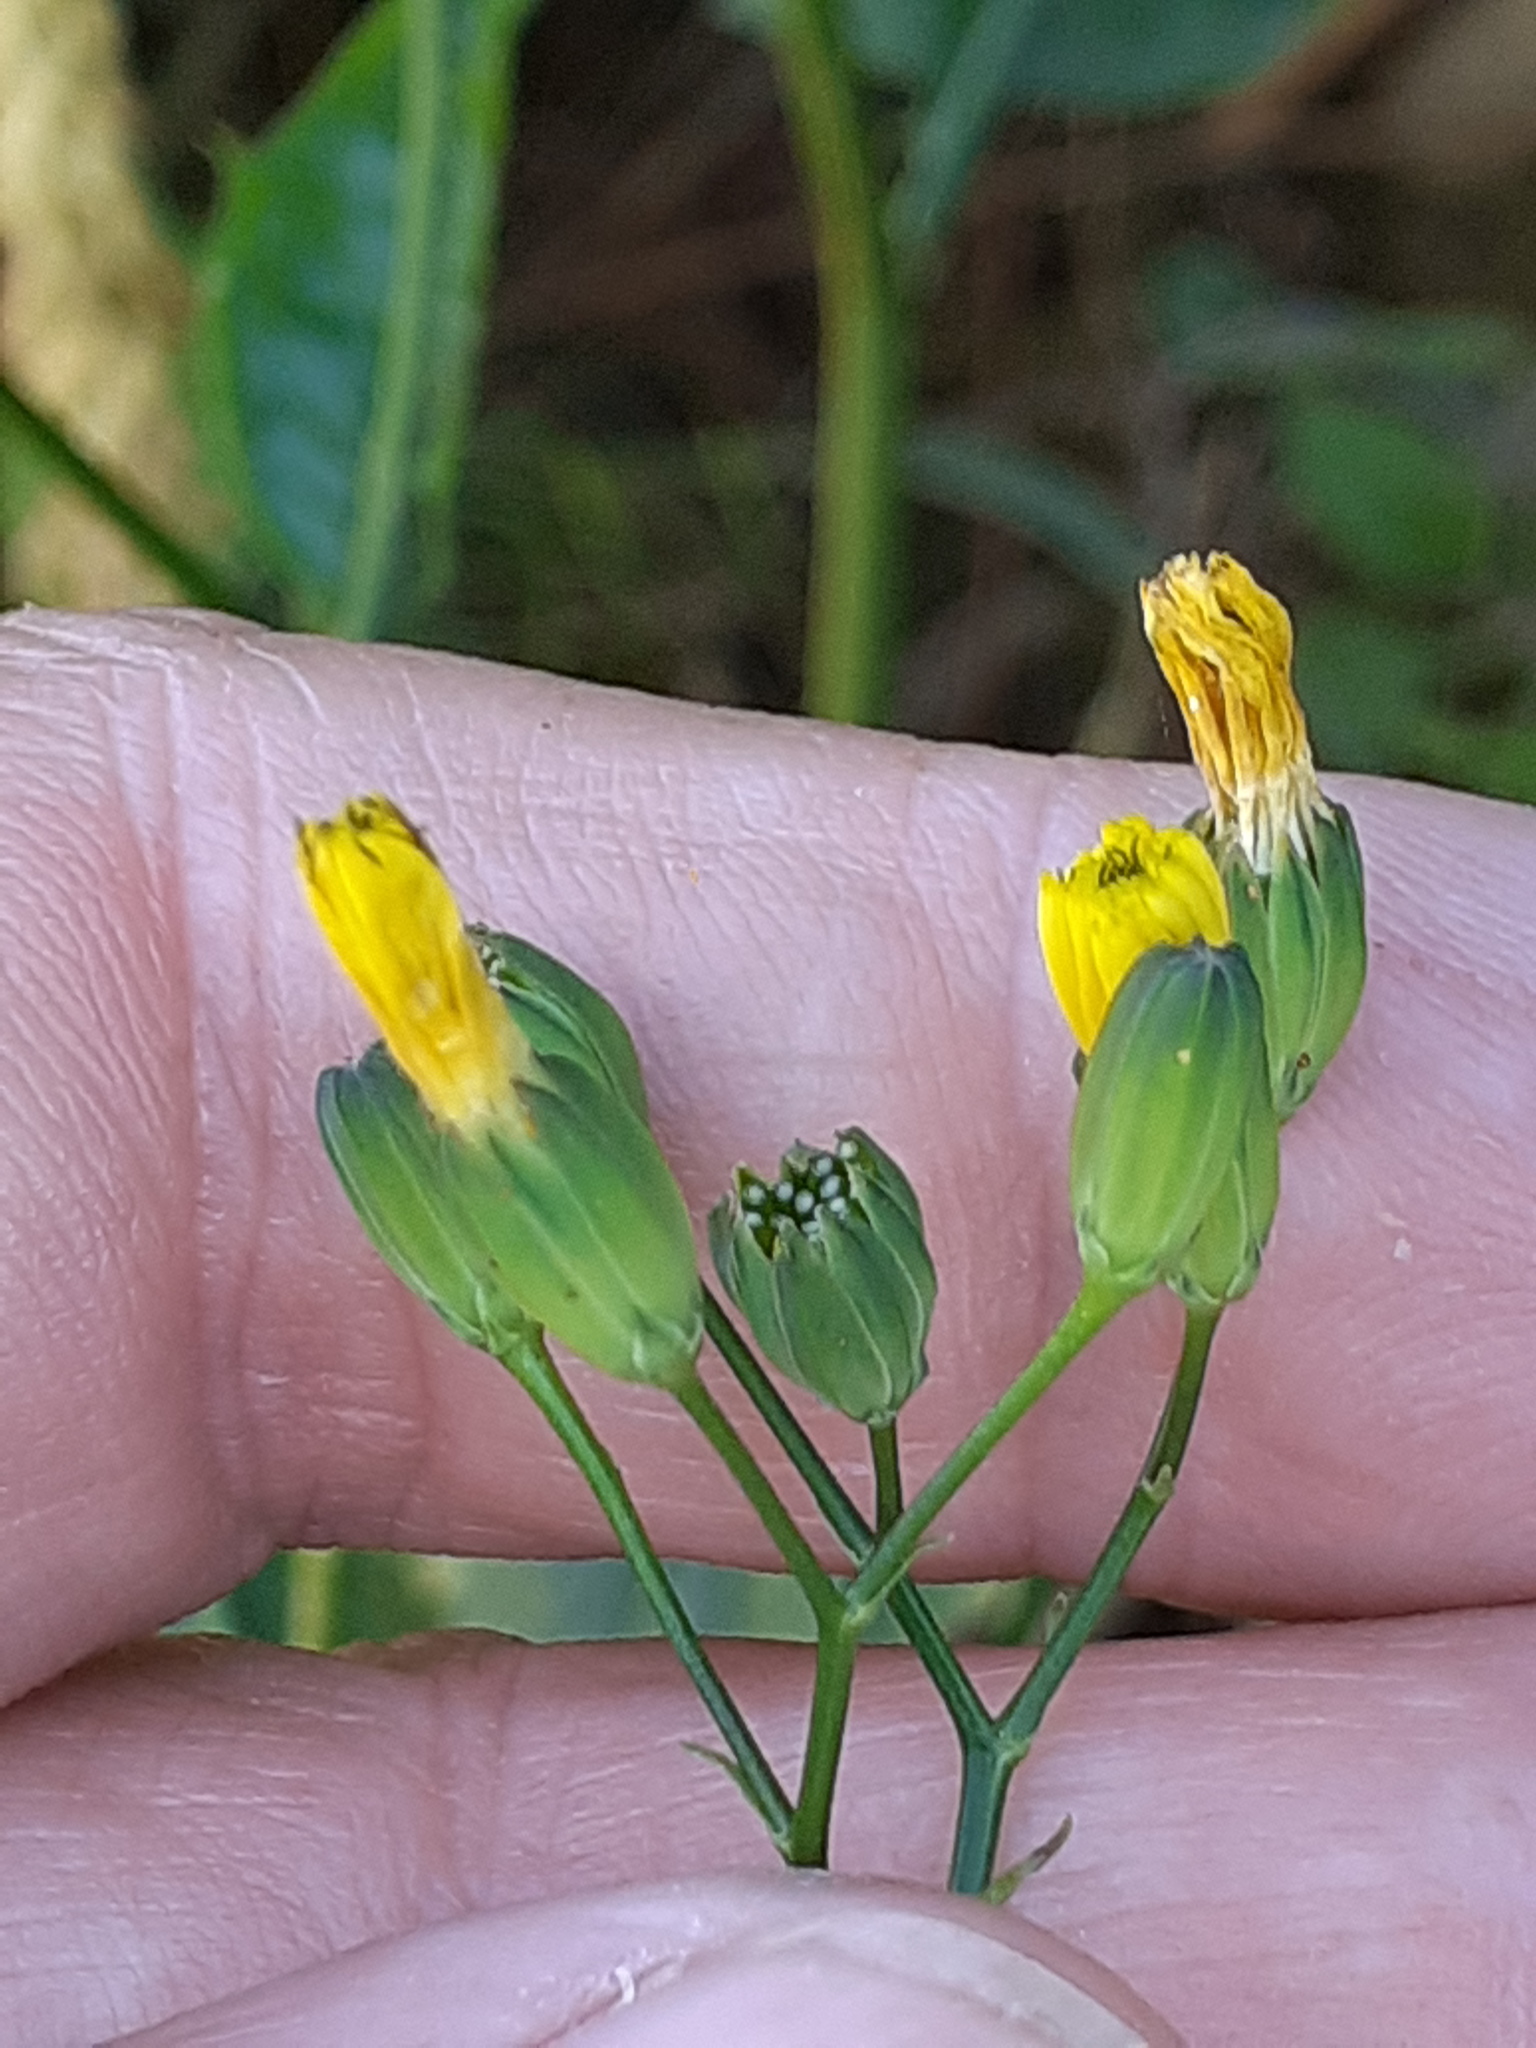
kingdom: Plantae
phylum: Tracheophyta
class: Magnoliopsida
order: Asterales
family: Asteraceae
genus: Lapsana
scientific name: Lapsana communis
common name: Nipplewort
